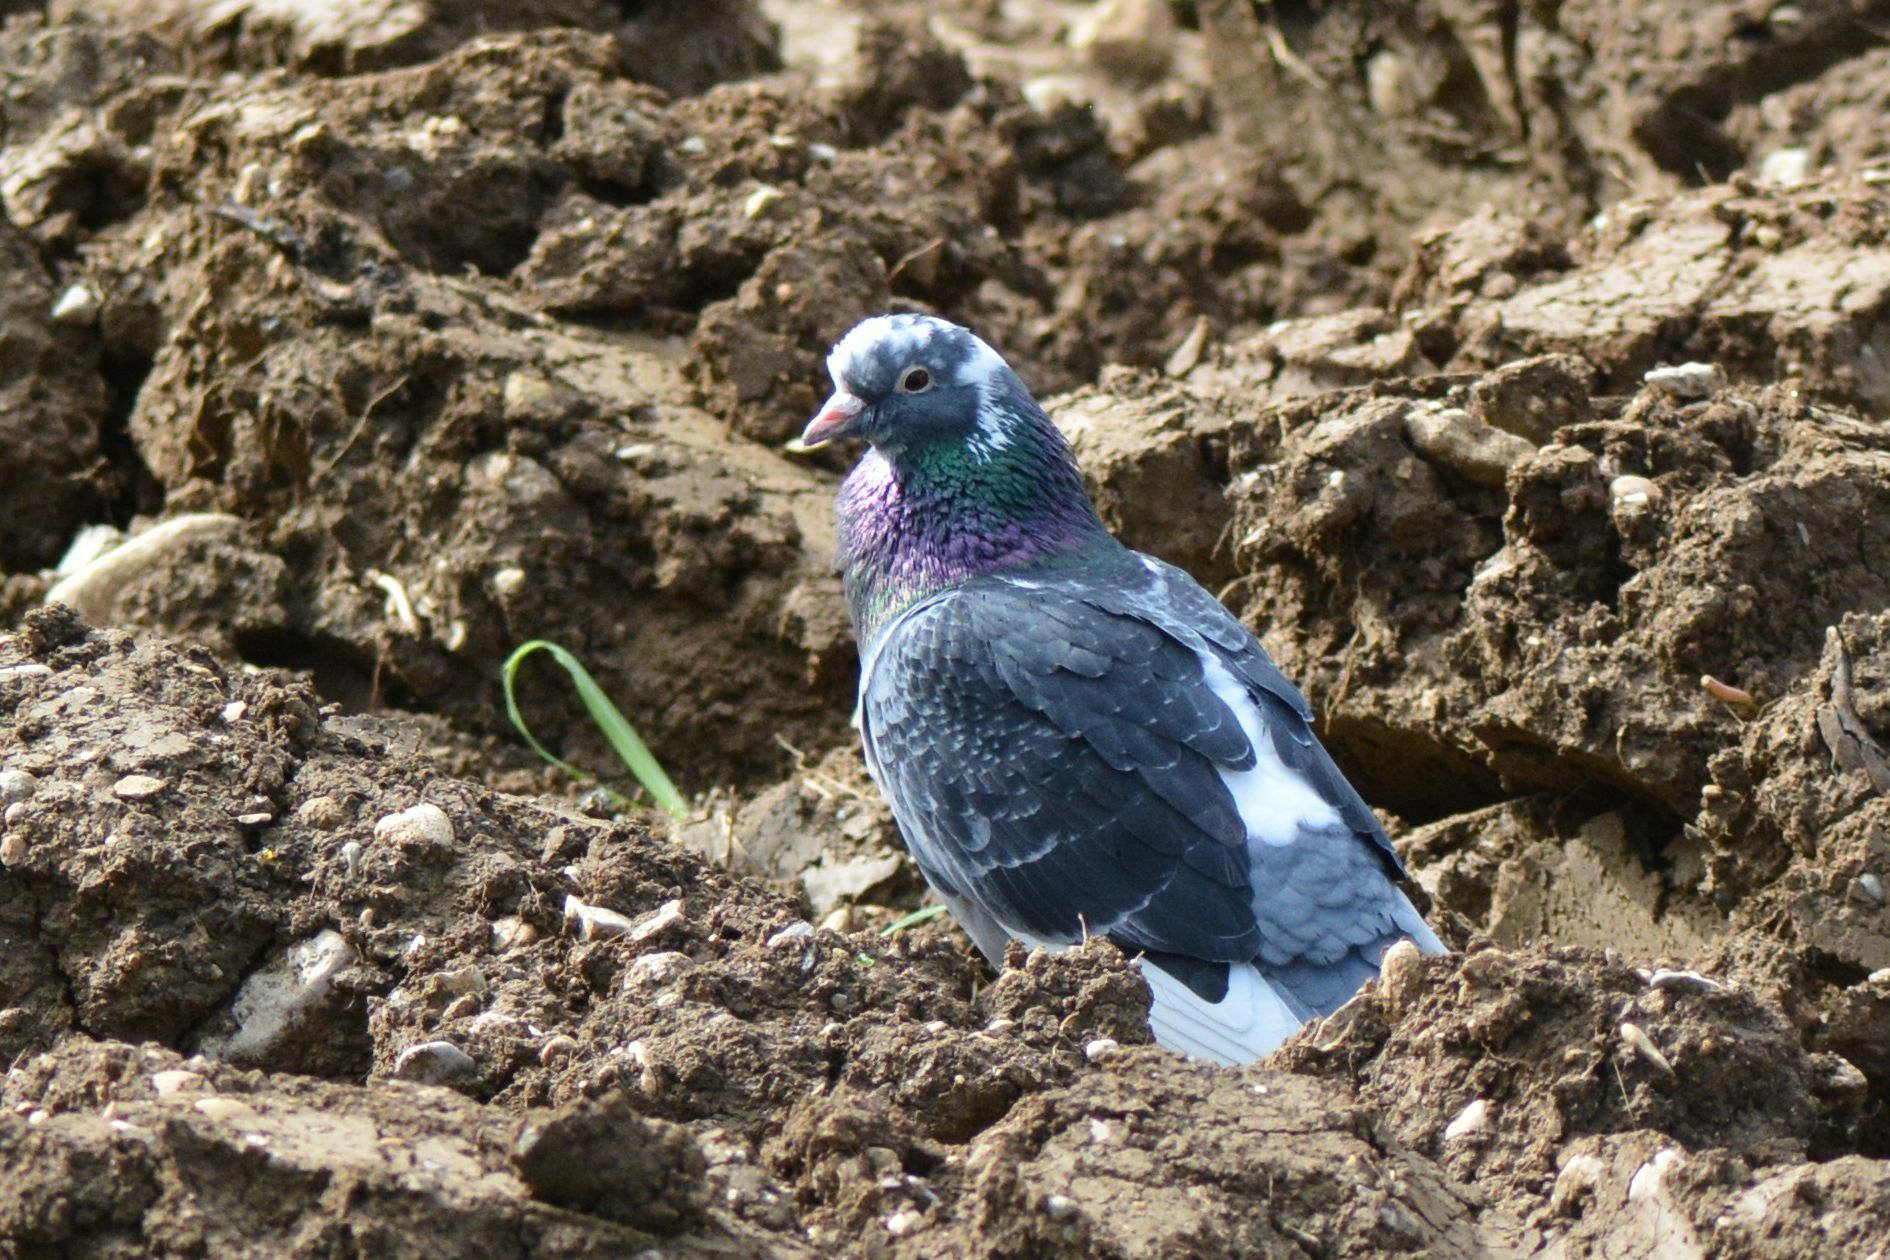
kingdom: Animalia
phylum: Chordata
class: Aves
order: Columbiformes
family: Columbidae
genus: Columba
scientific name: Columba livia
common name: Rock pigeon
